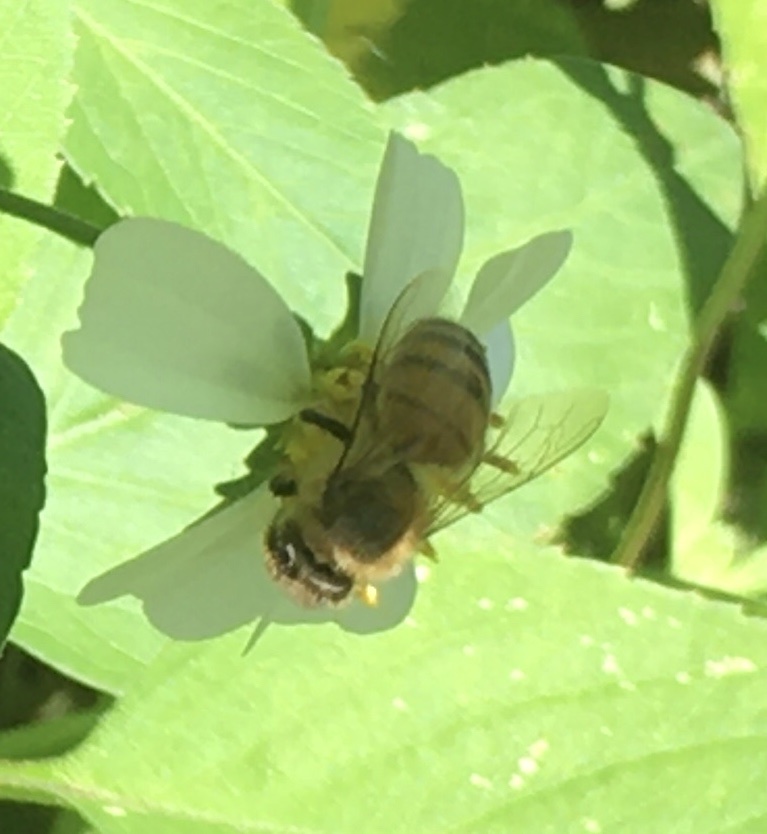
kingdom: Animalia
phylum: Arthropoda
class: Insecta
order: Hymenoptera
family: Apidae
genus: Apis
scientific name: Apis mellifera
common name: Honey bee
